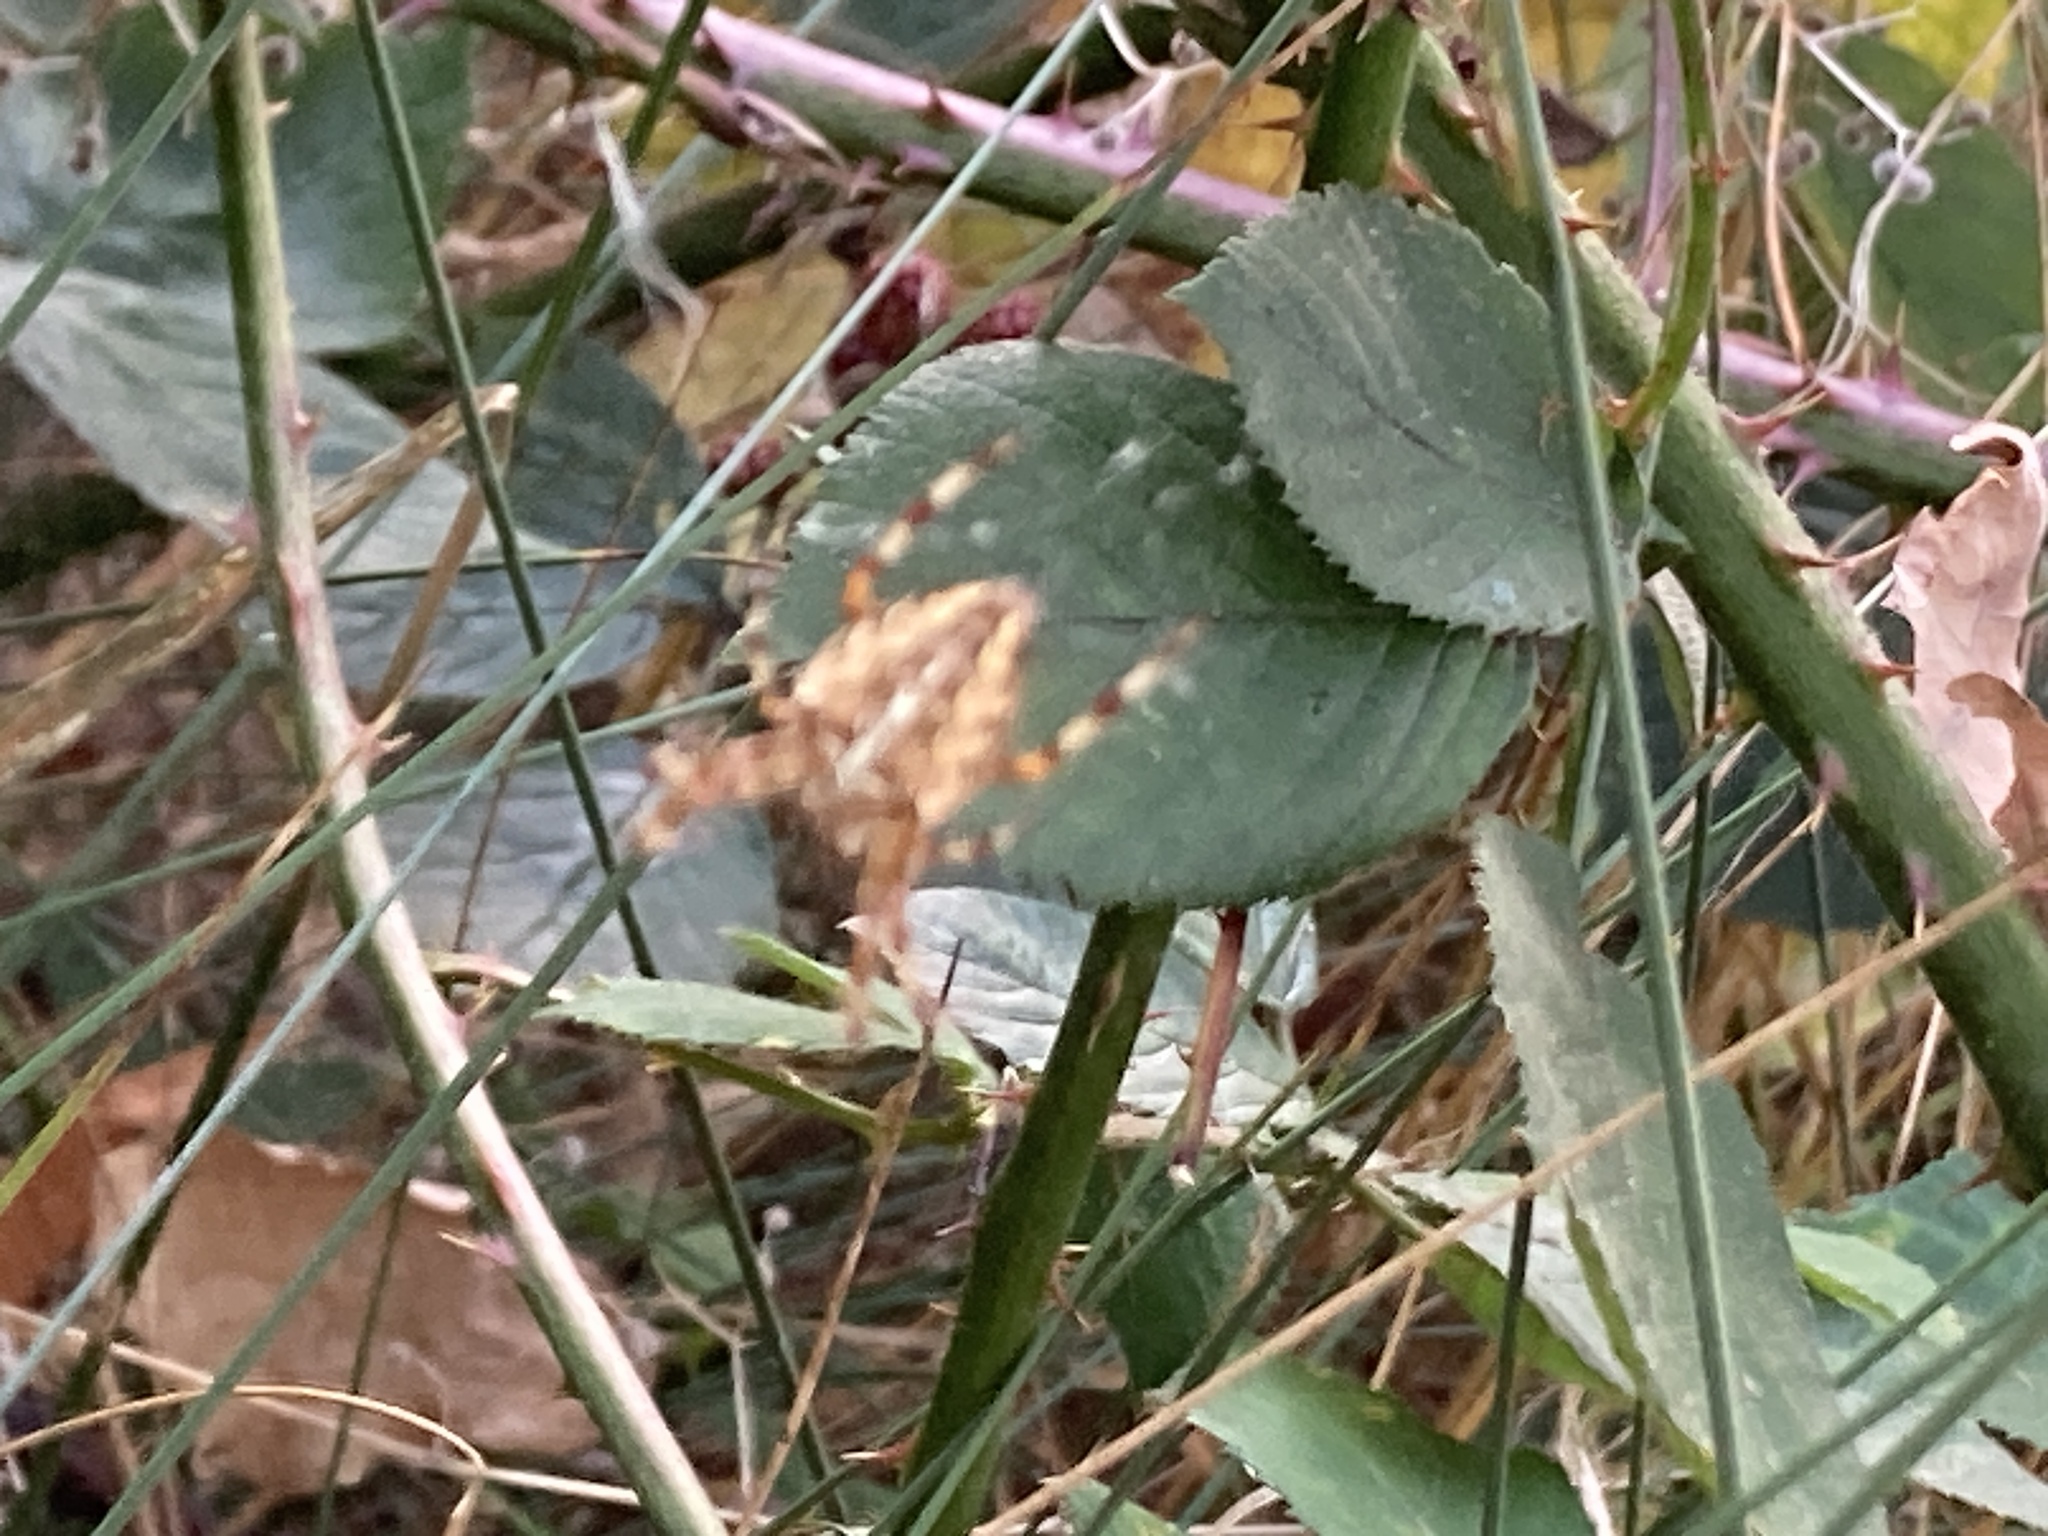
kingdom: Animalia
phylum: Arthropoda
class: Arachnida
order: Araneae
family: Araneidae
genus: Araneus
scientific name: Araneus diadematus
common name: Cross orbweaver
